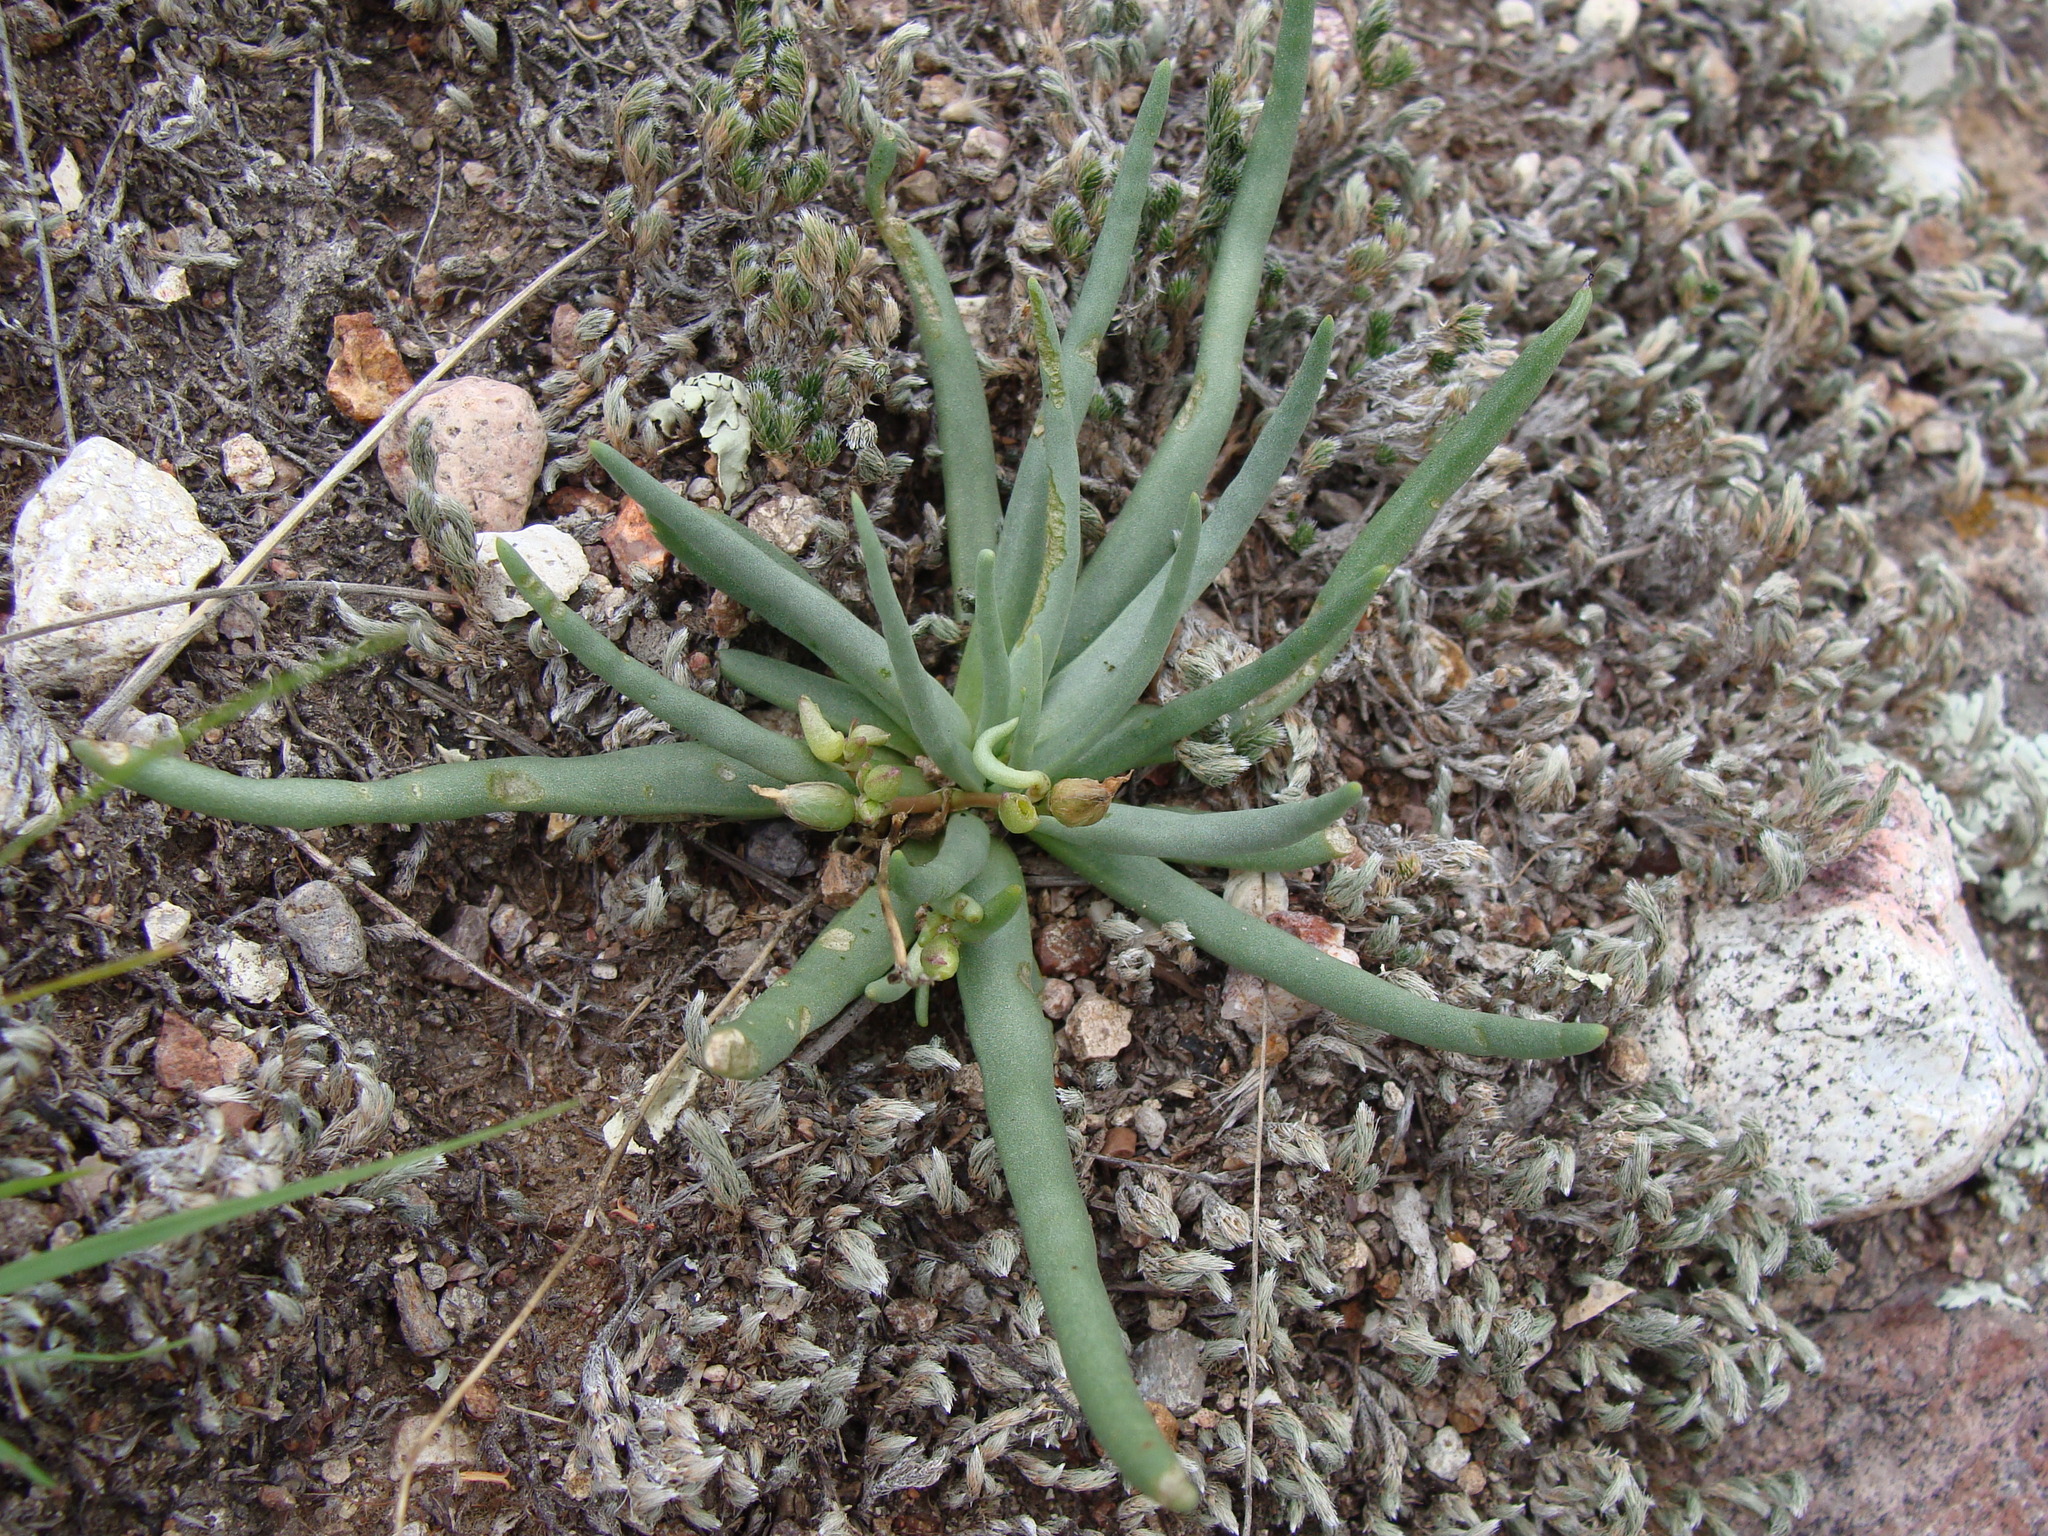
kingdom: Plantae
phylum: Tracheophyta
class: Magnoliopsida
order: Caryophyllales
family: Montiaceae
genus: Phemeranthus
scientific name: Phemeranthus napiformis
